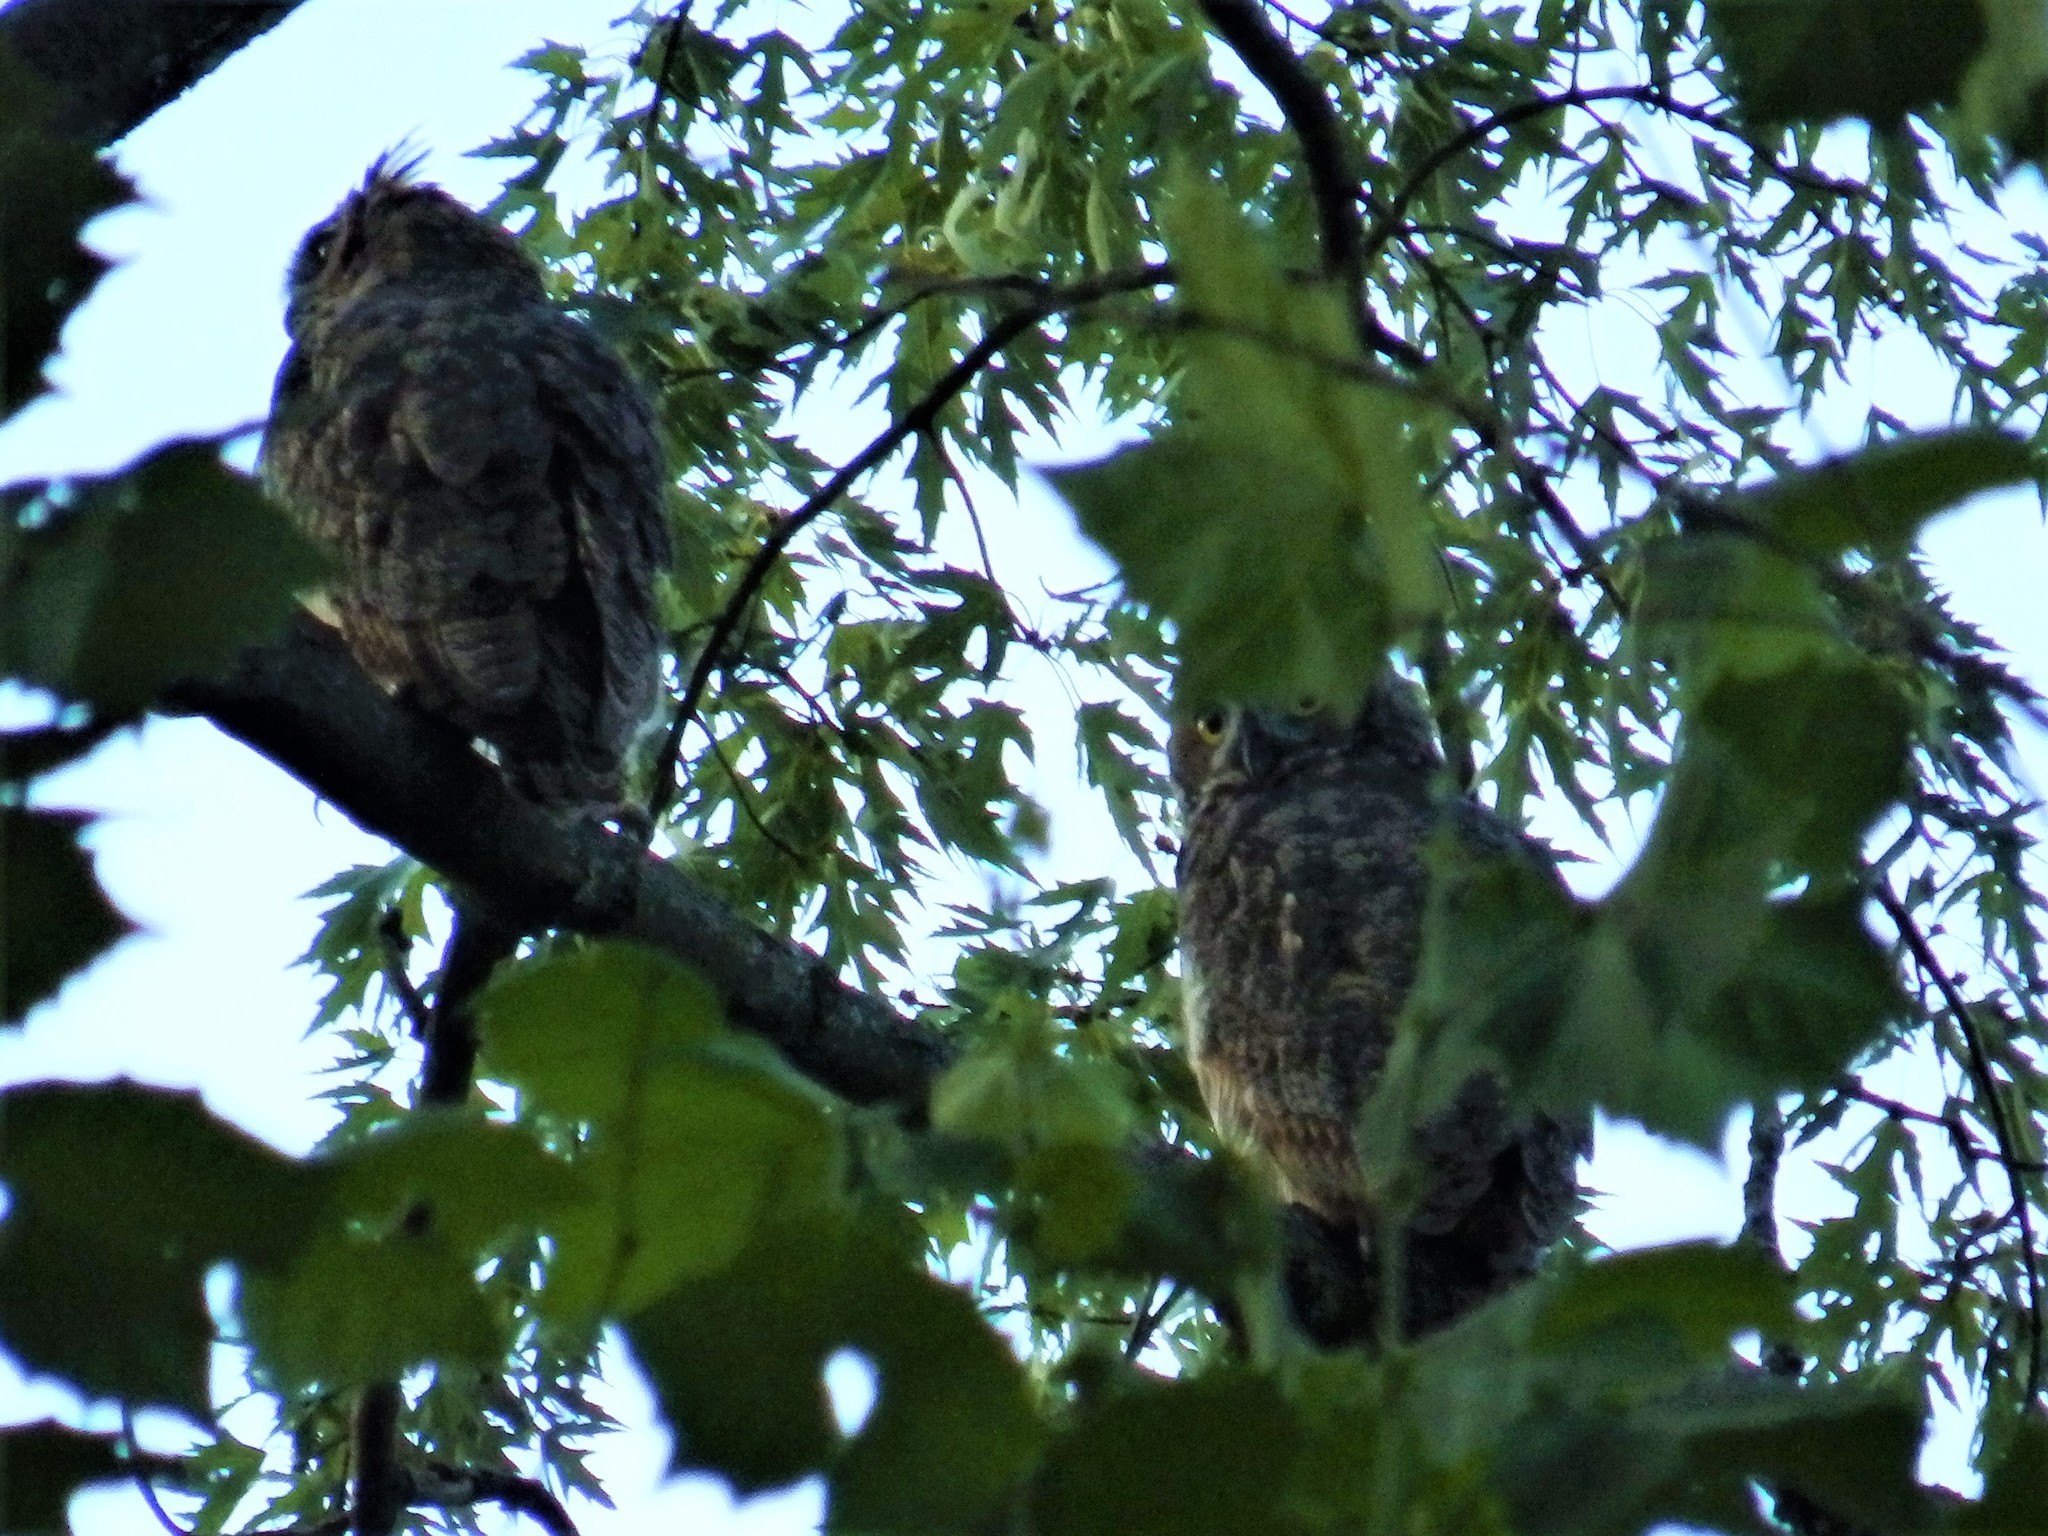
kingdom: Animalia
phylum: Chordata
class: Aves
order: Strigiformes
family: Strigidae
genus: Bubo
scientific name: Bubo virginianus
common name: Great horned owl
